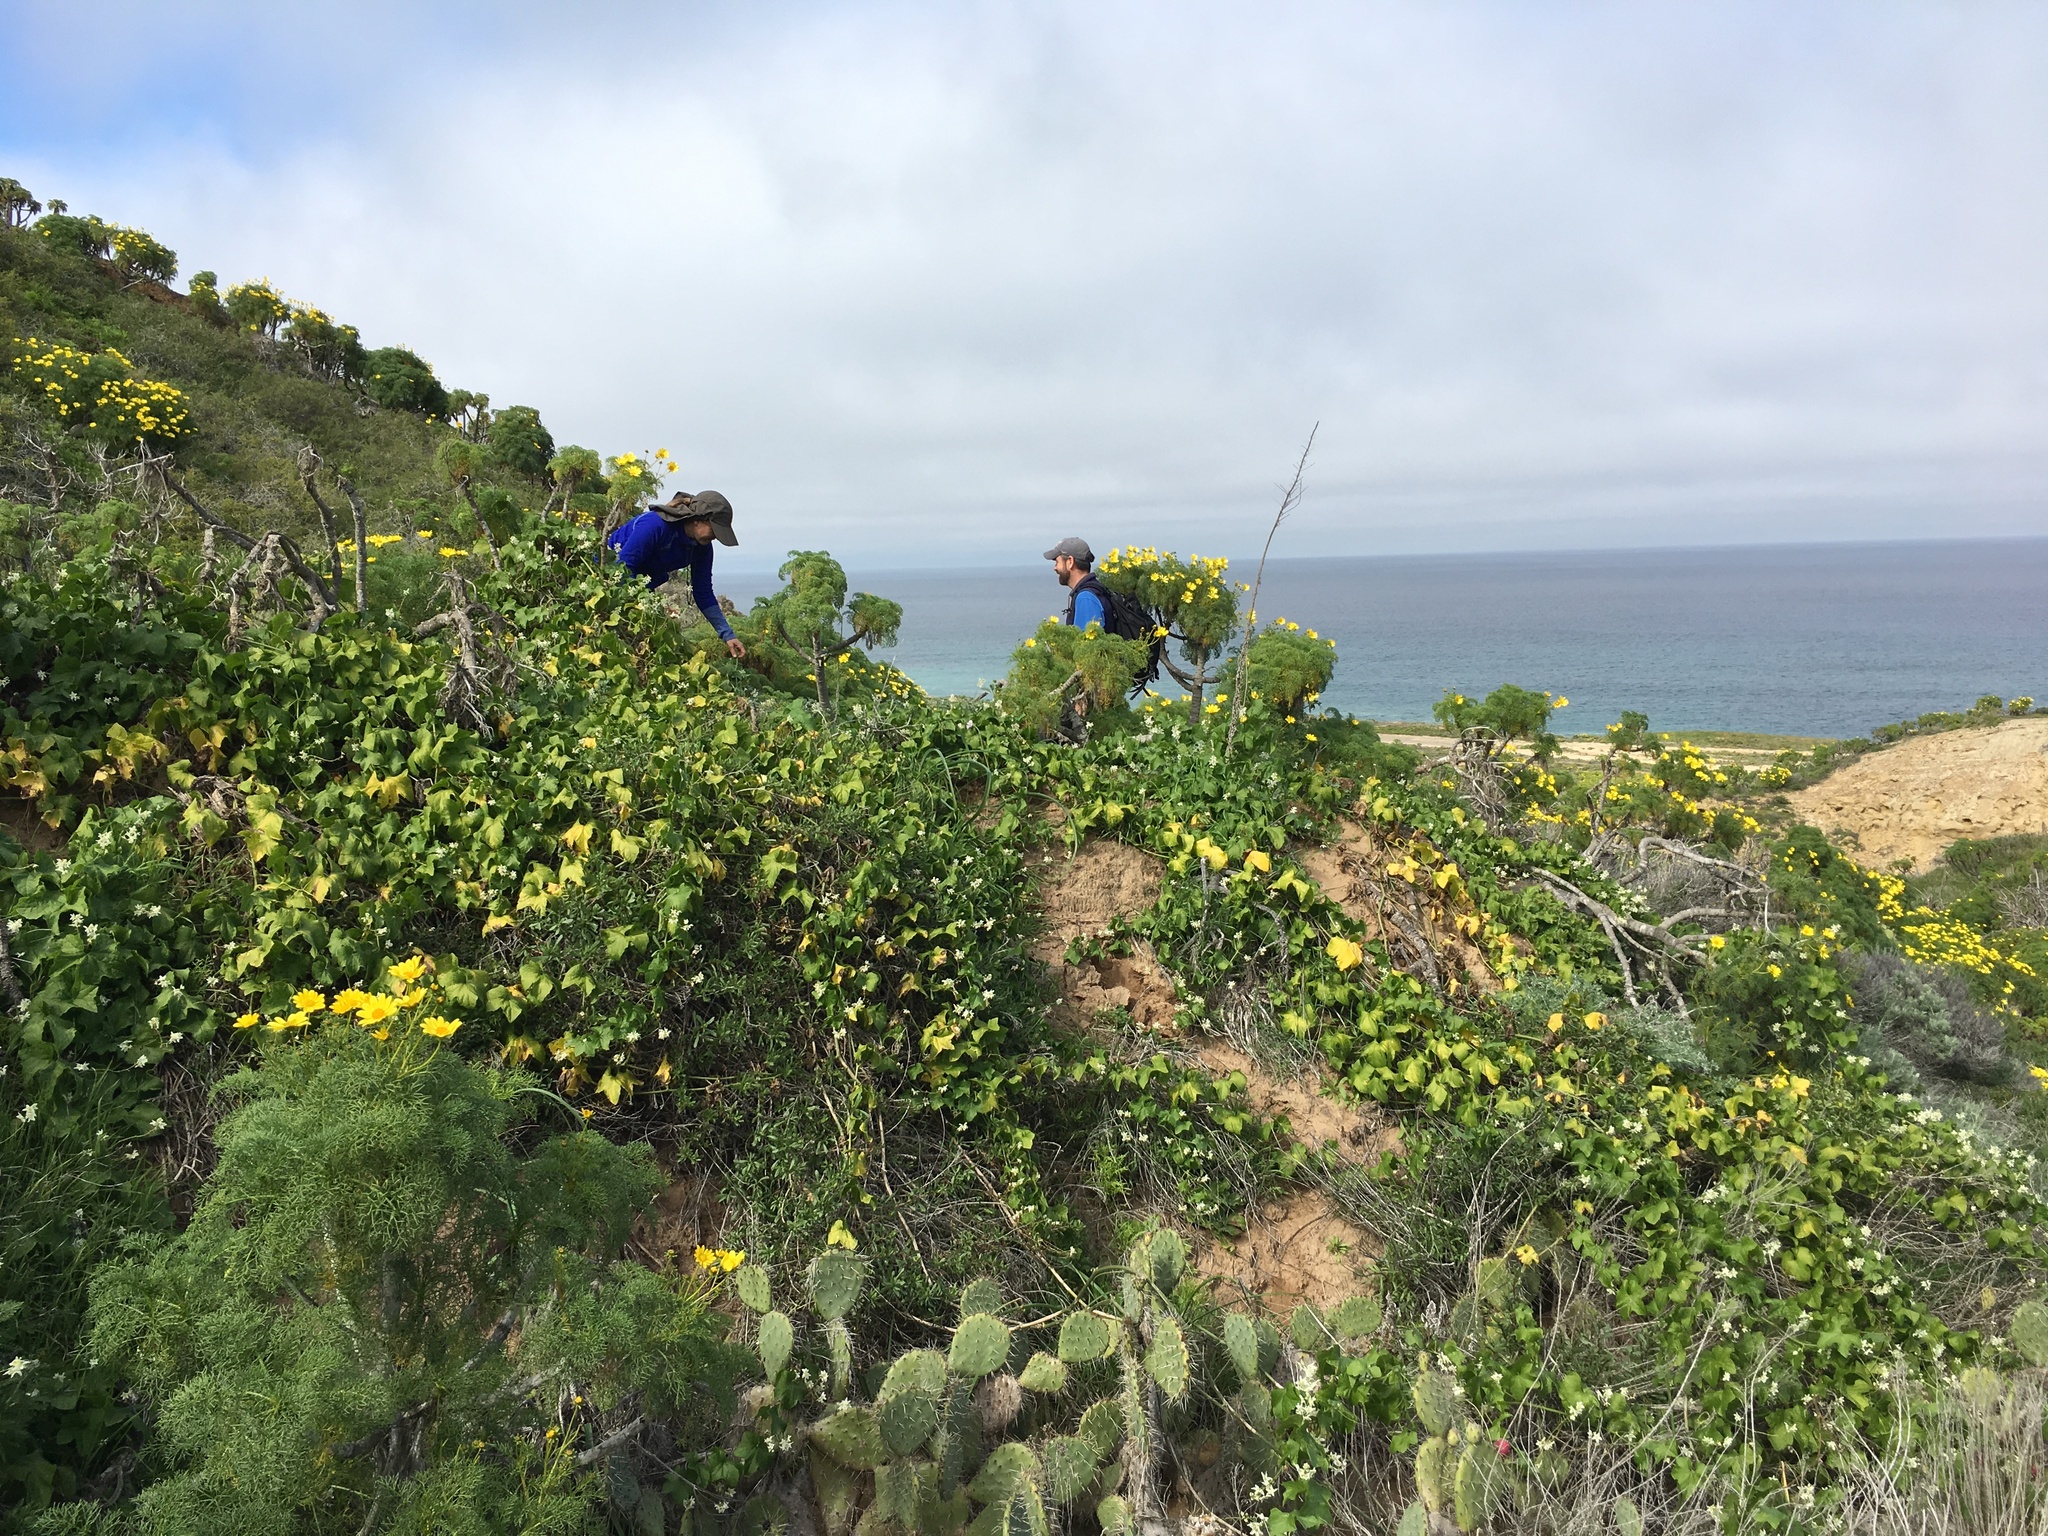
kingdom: Plantae
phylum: Tracheophyta
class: Magnoliopsida
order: Asterales
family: Asteraceae
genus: Coreopsis
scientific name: Coreopsis gigantea
